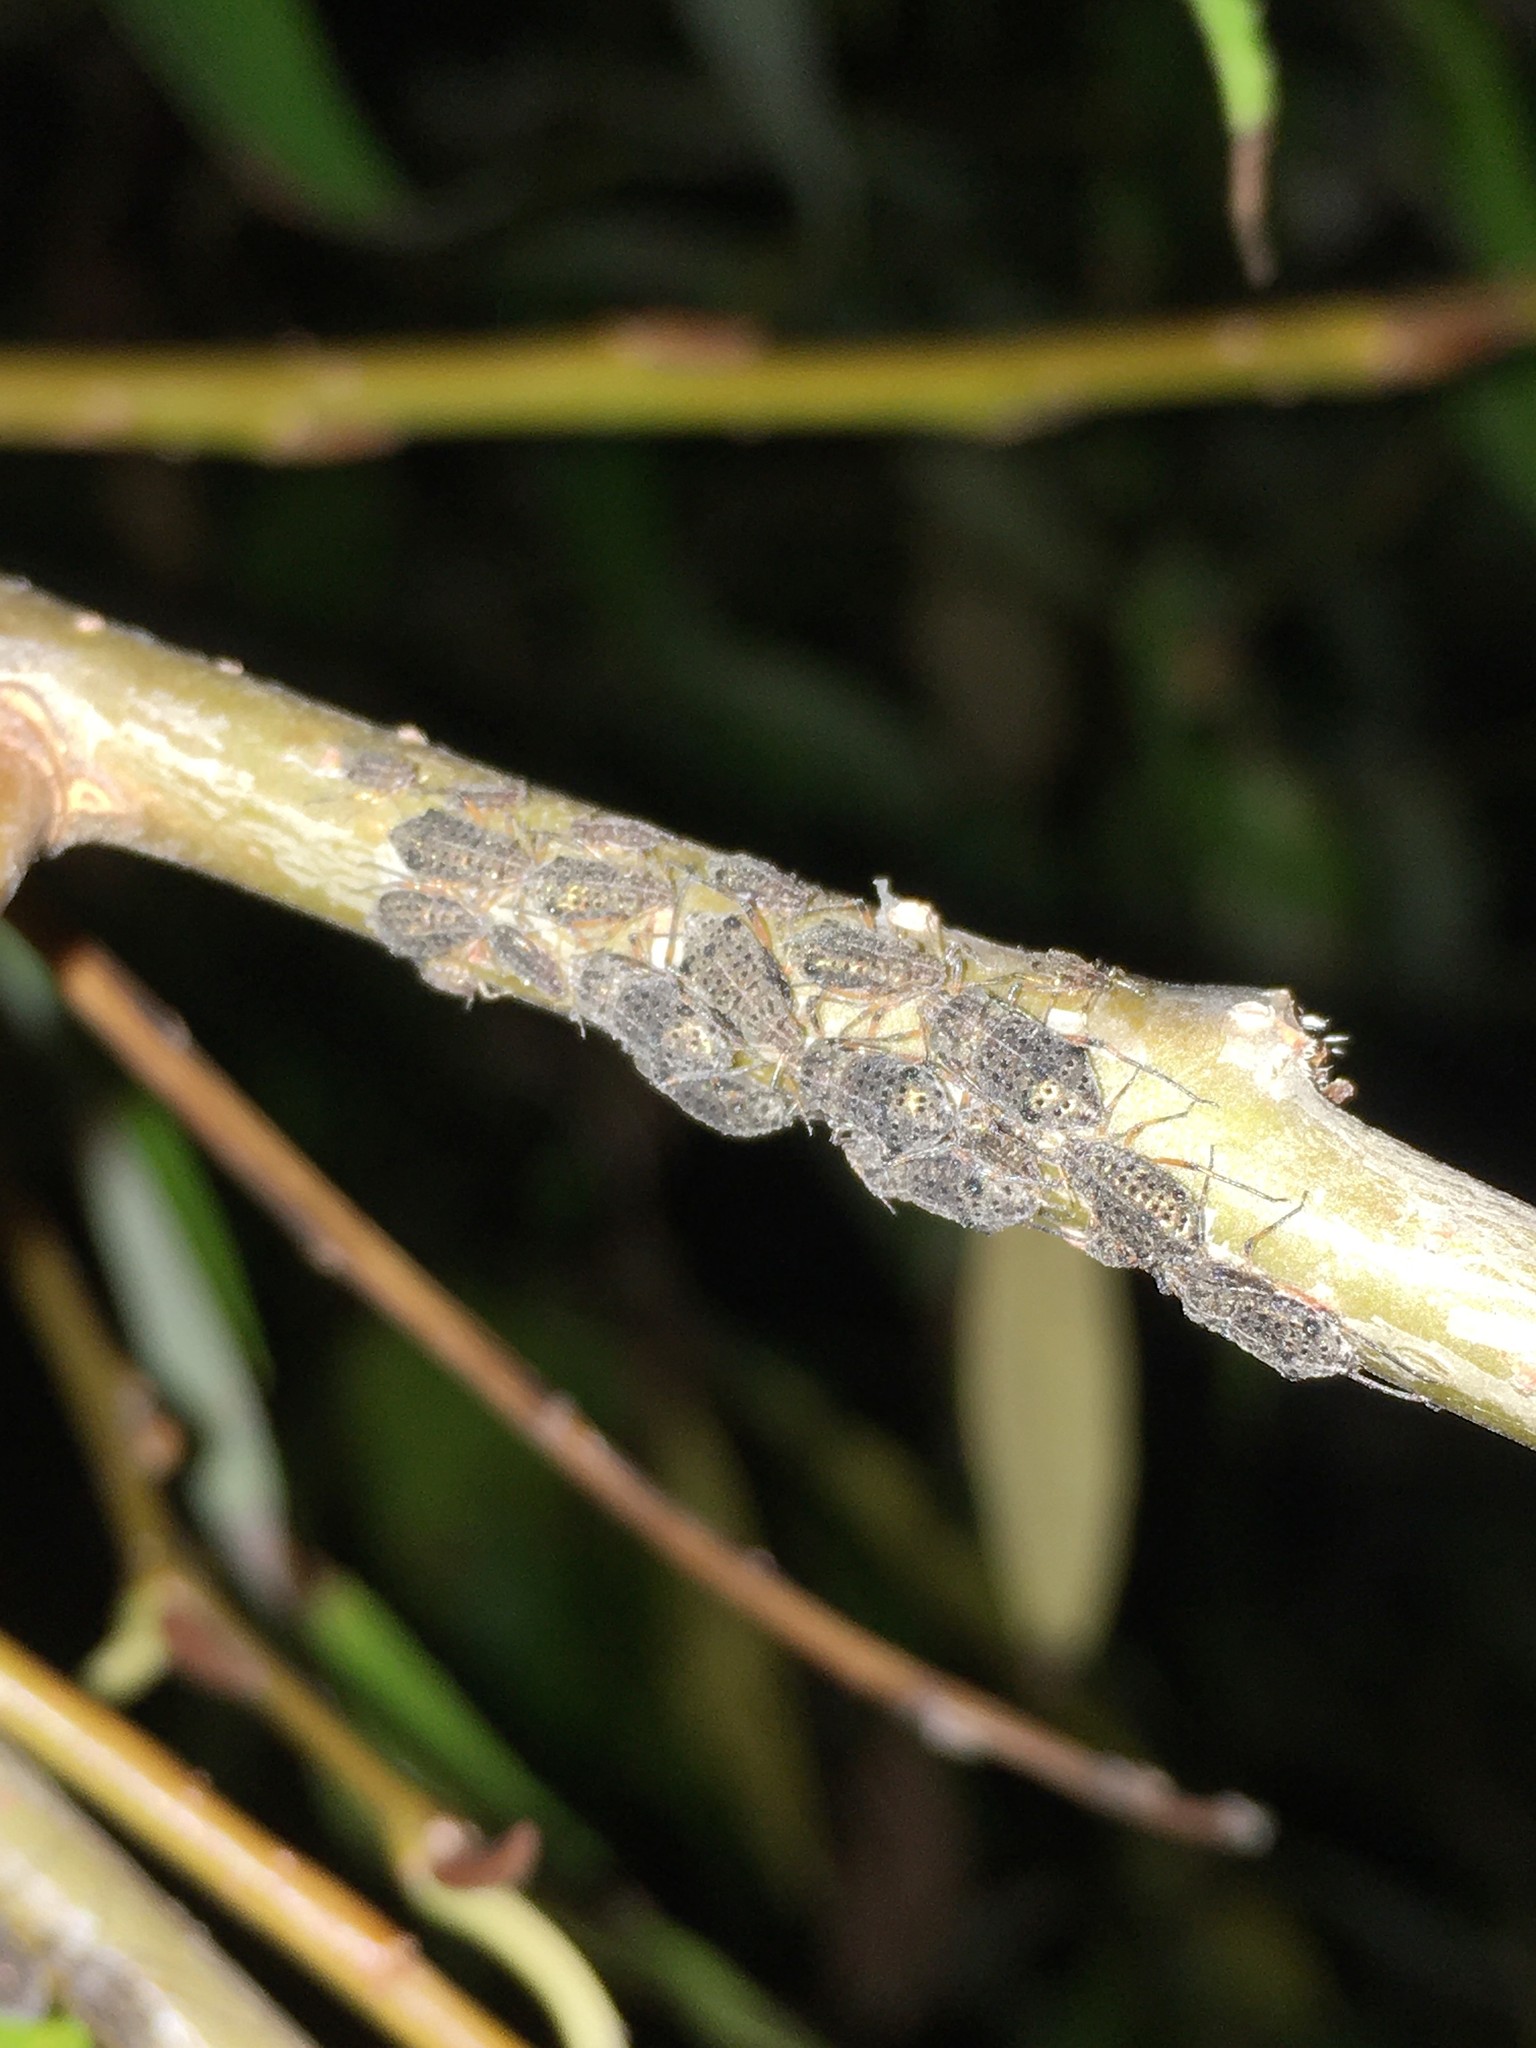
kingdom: Animalia
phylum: Arthropoda
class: Insecta
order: Hemiptera
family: Aphididae
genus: Tuberolachnus
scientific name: Tuberolachnus salignus
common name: Giant willow aphid
